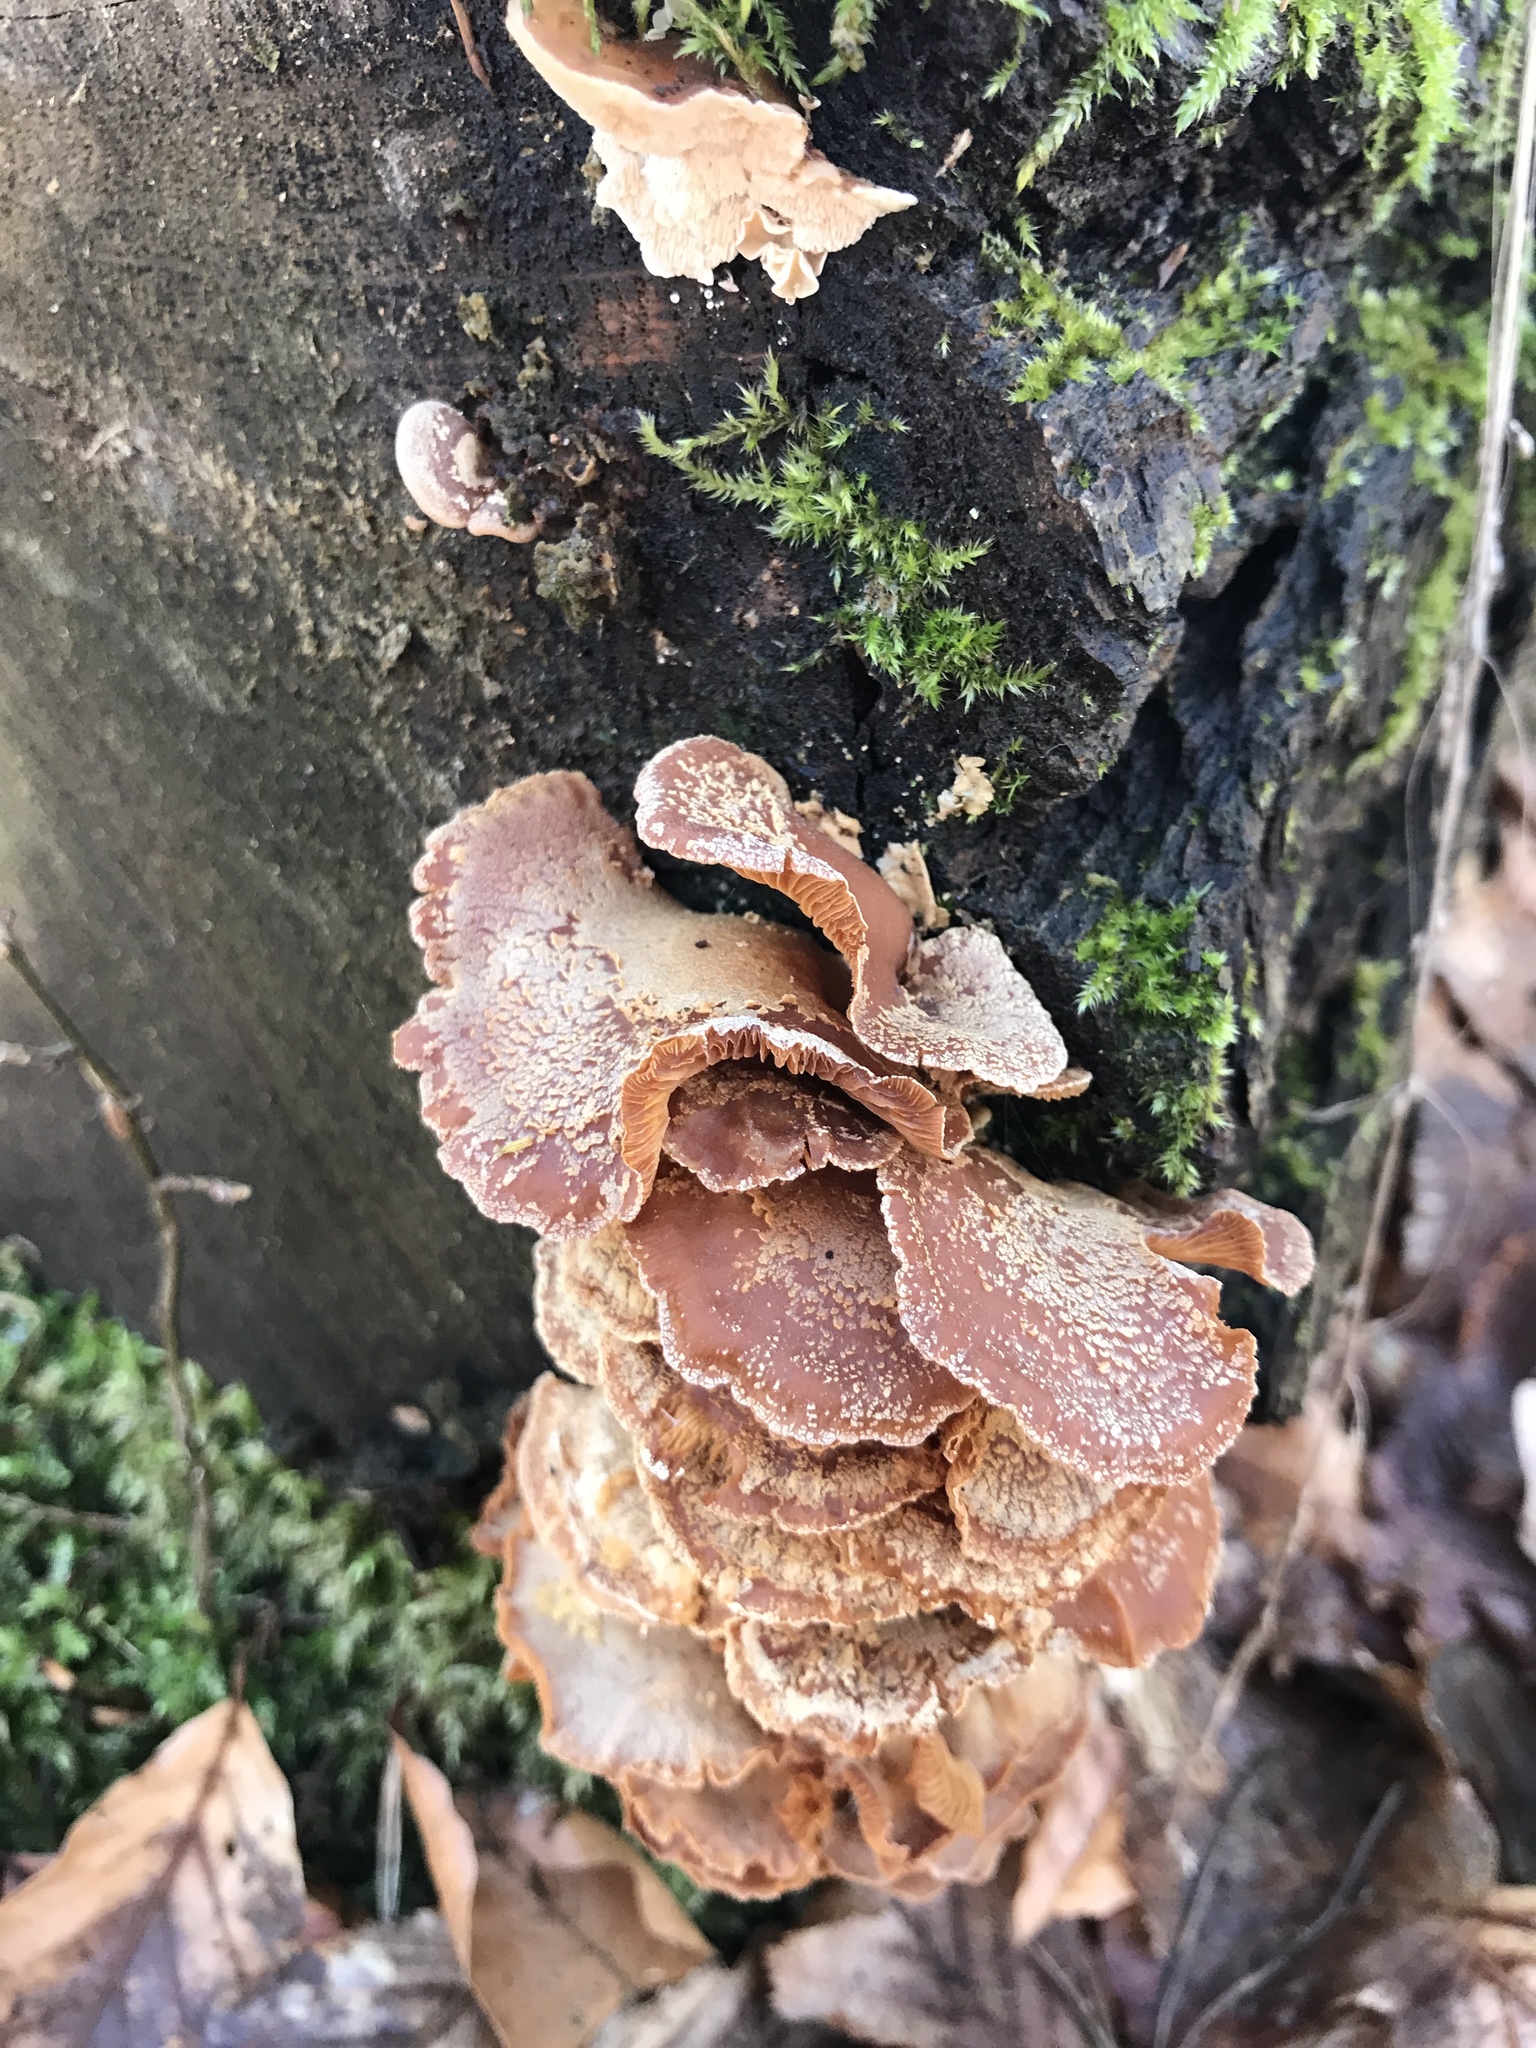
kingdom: Fungi
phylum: Basidiomycota
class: Agaricomycetes
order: Agaricales
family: Mycenaceae
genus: Panellus
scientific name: Panellus stipticus
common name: Bitter oysterling
